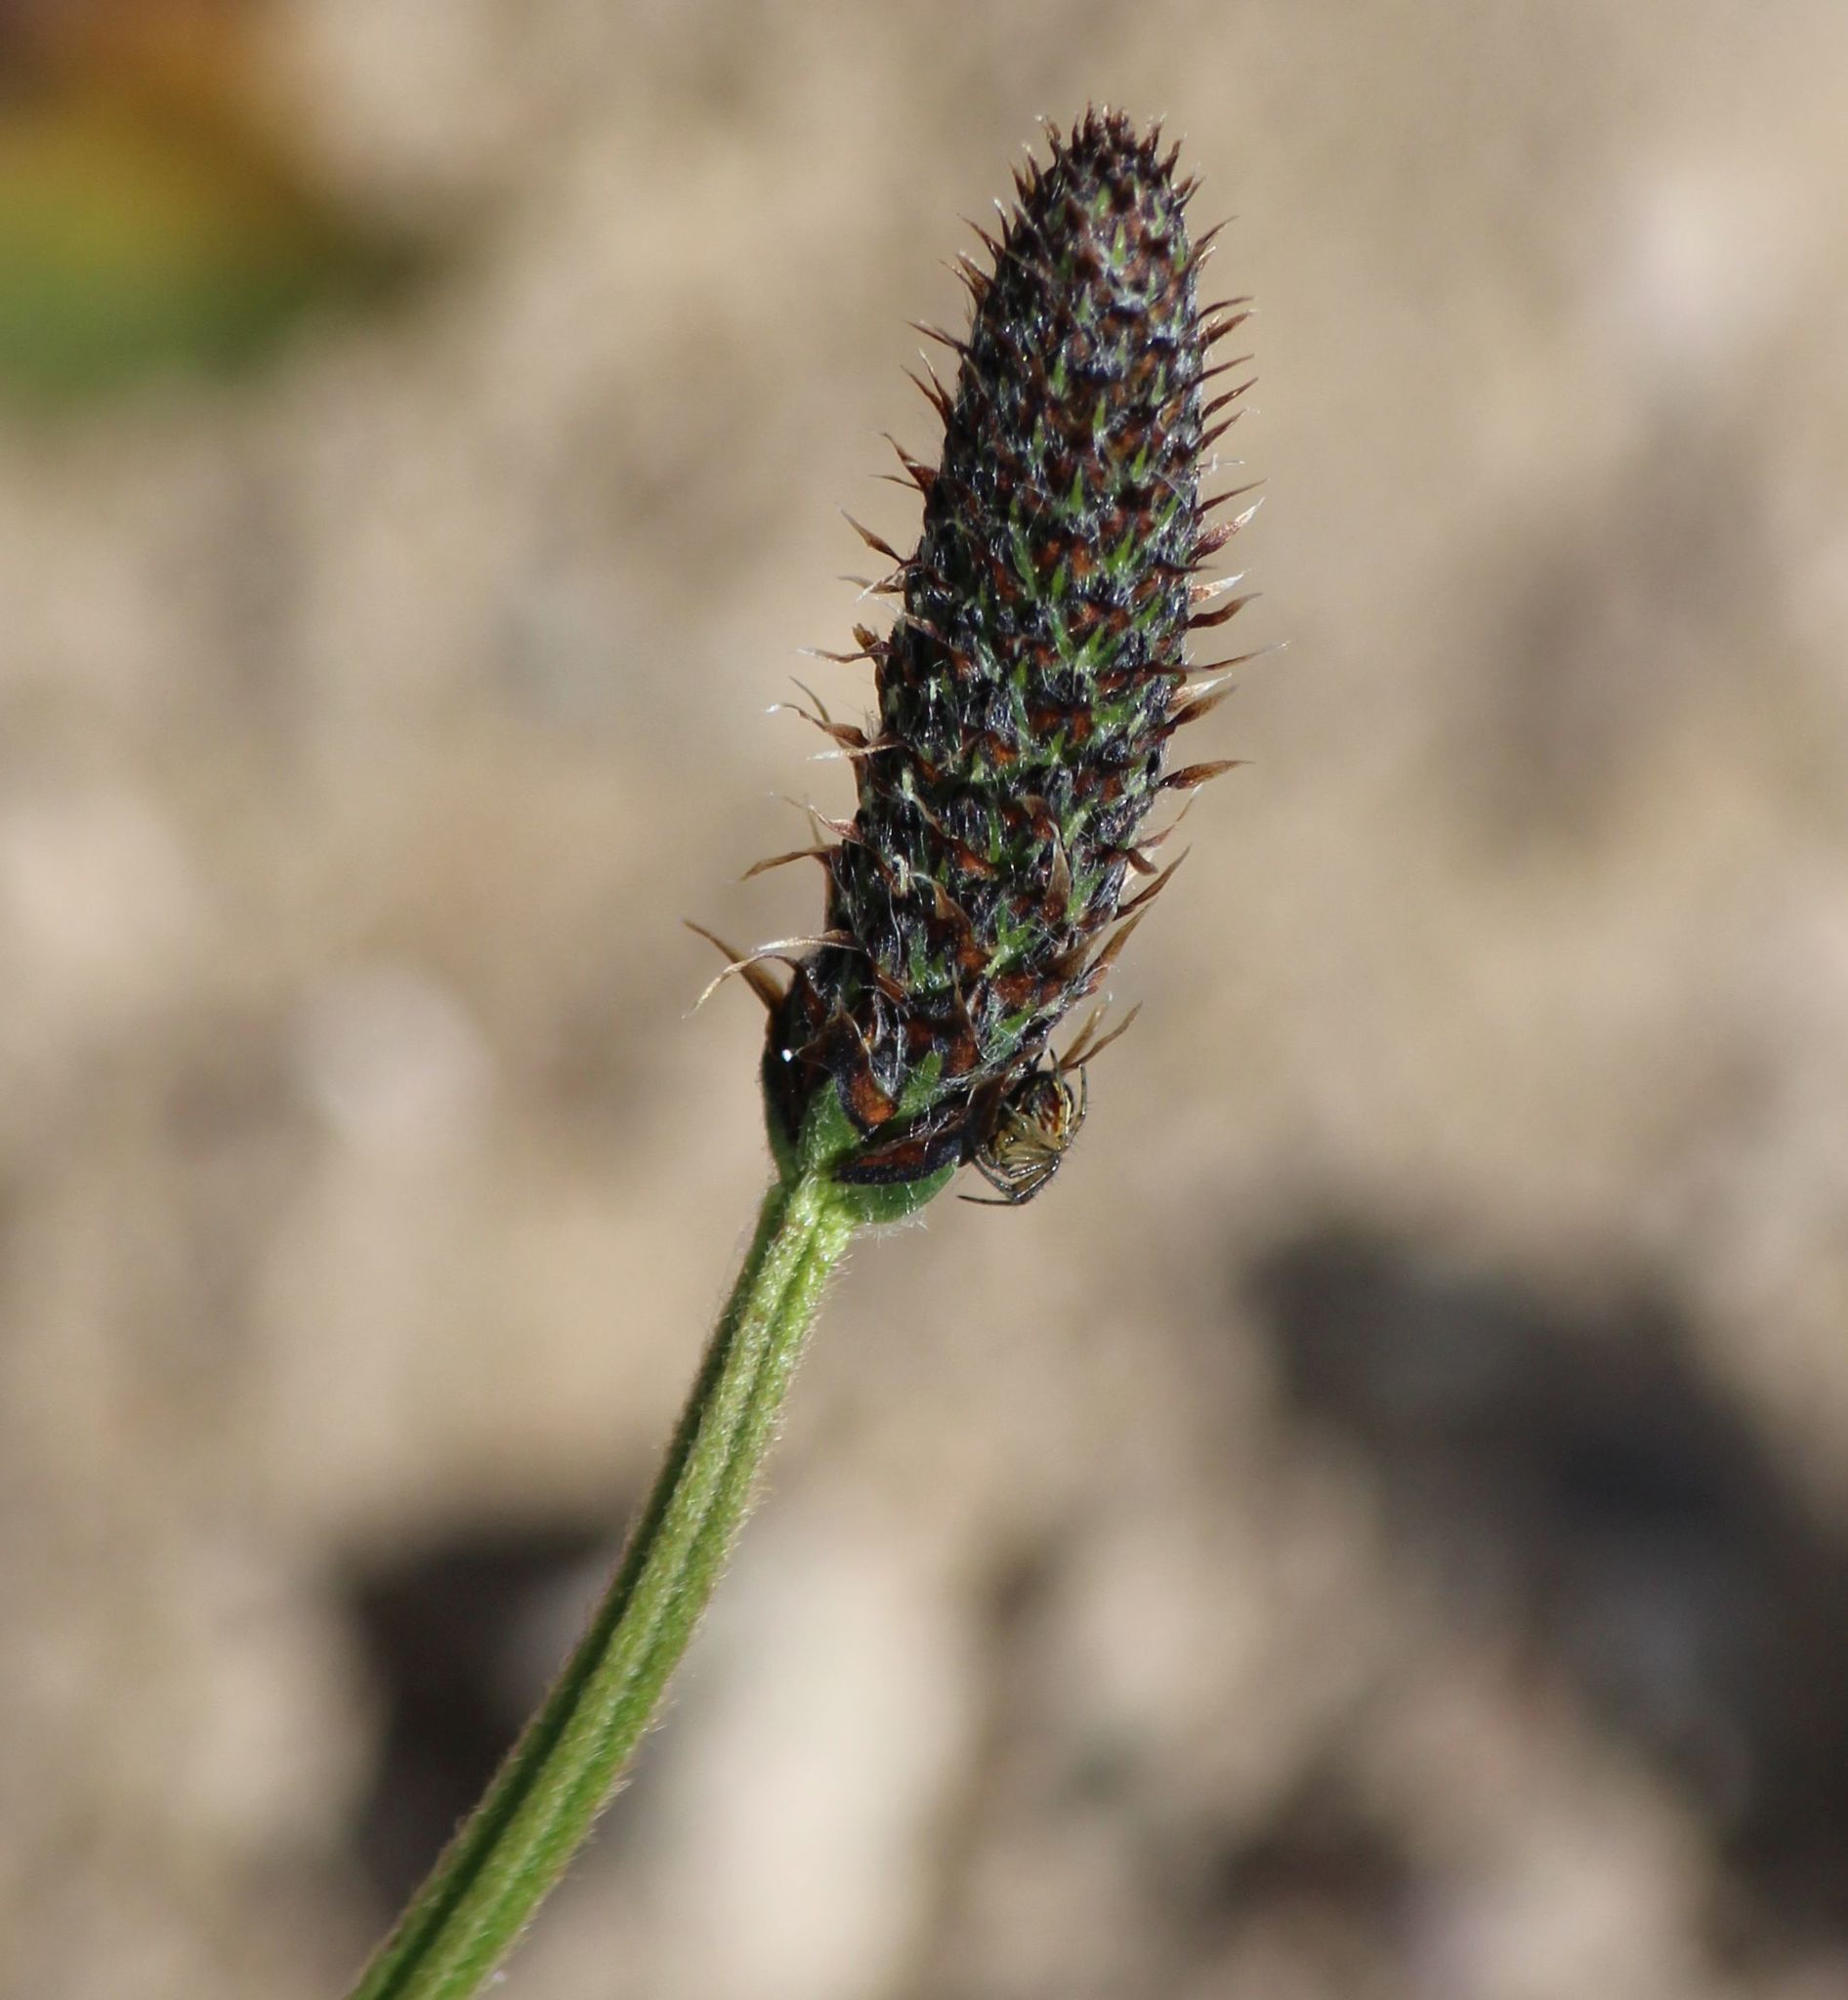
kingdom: Plantae
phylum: Tracheophyta
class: Magnoliopsida
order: Lamiales
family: Plantaginaceae
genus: Plantago
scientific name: Plantago lanceolata
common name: Ribwort plantain
